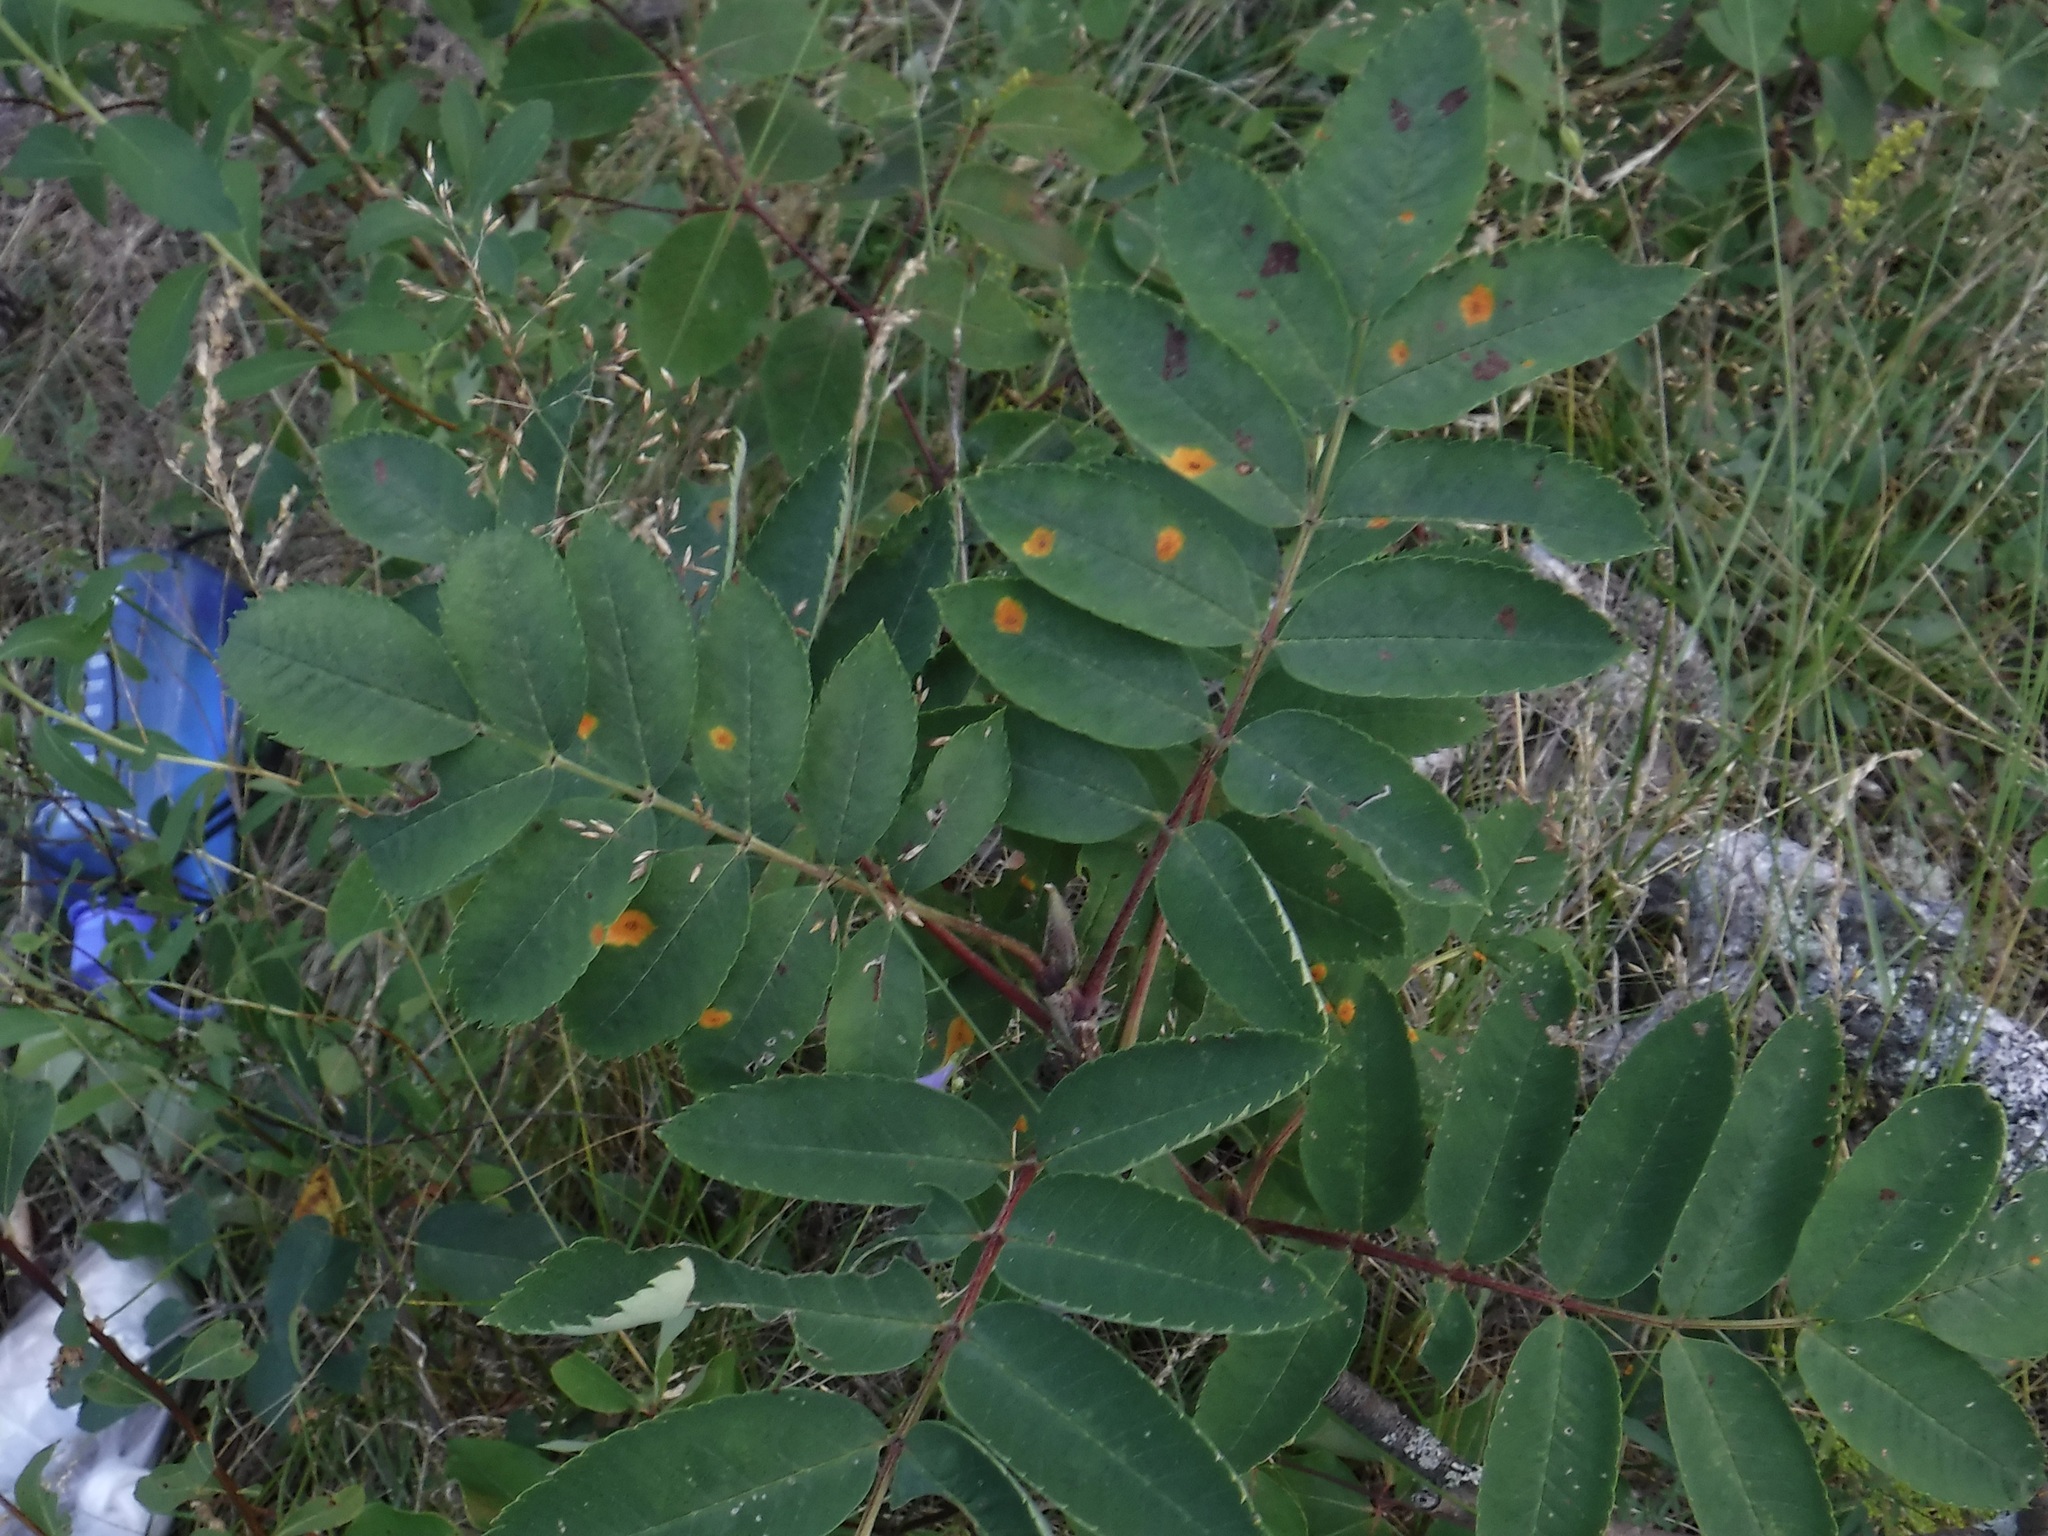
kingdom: Fungi
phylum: Basidiomycota
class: Pucciniomycetes
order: Pucciniales
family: Gymnosporangiaceae
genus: Gymnosporangium
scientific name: Gymnosporangium cornutum
